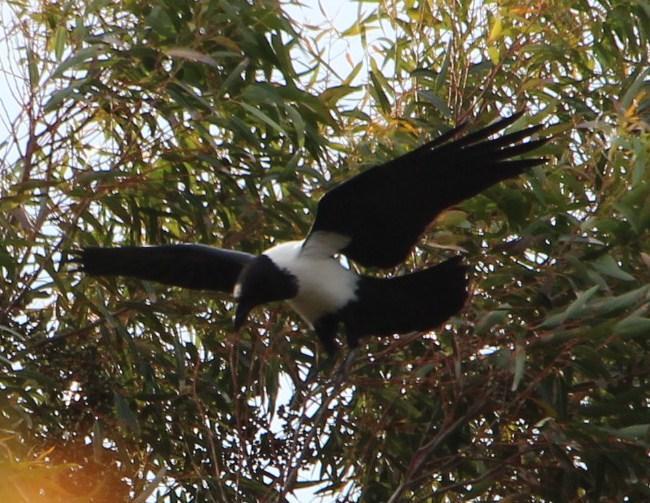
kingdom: Animalia
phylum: Chordata
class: Aves
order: Passeriformes
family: Corvidae
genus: Corvus
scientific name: Corvus albus
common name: Pied crow
